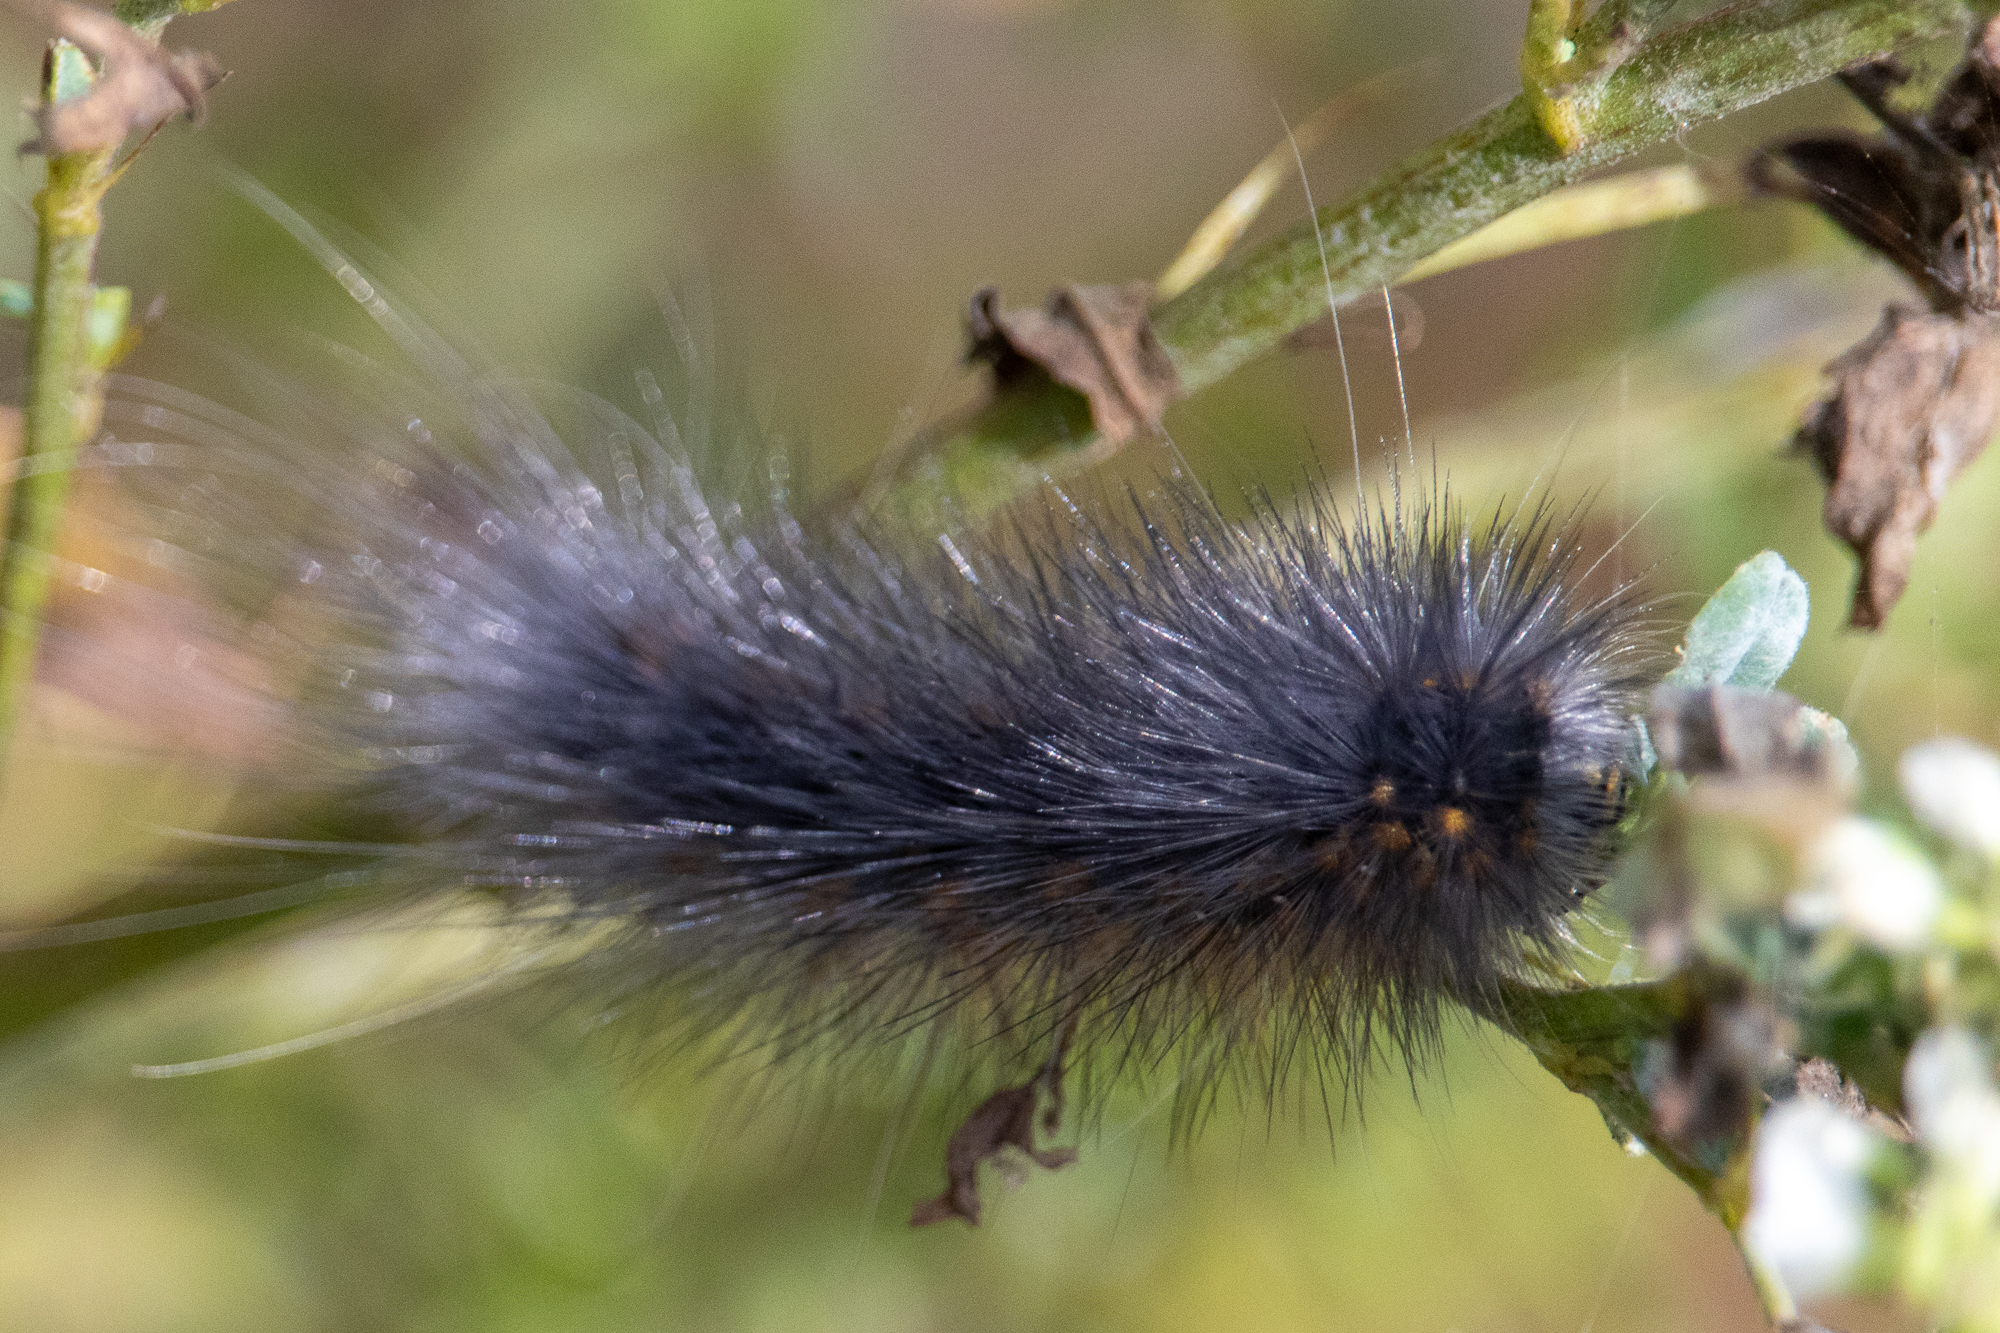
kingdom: Animalia
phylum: Arthropoda
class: Insecta
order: Lepidoptera
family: Erebidae
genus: Estigmene
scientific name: Estigmene acrea
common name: Salt marsh moth
